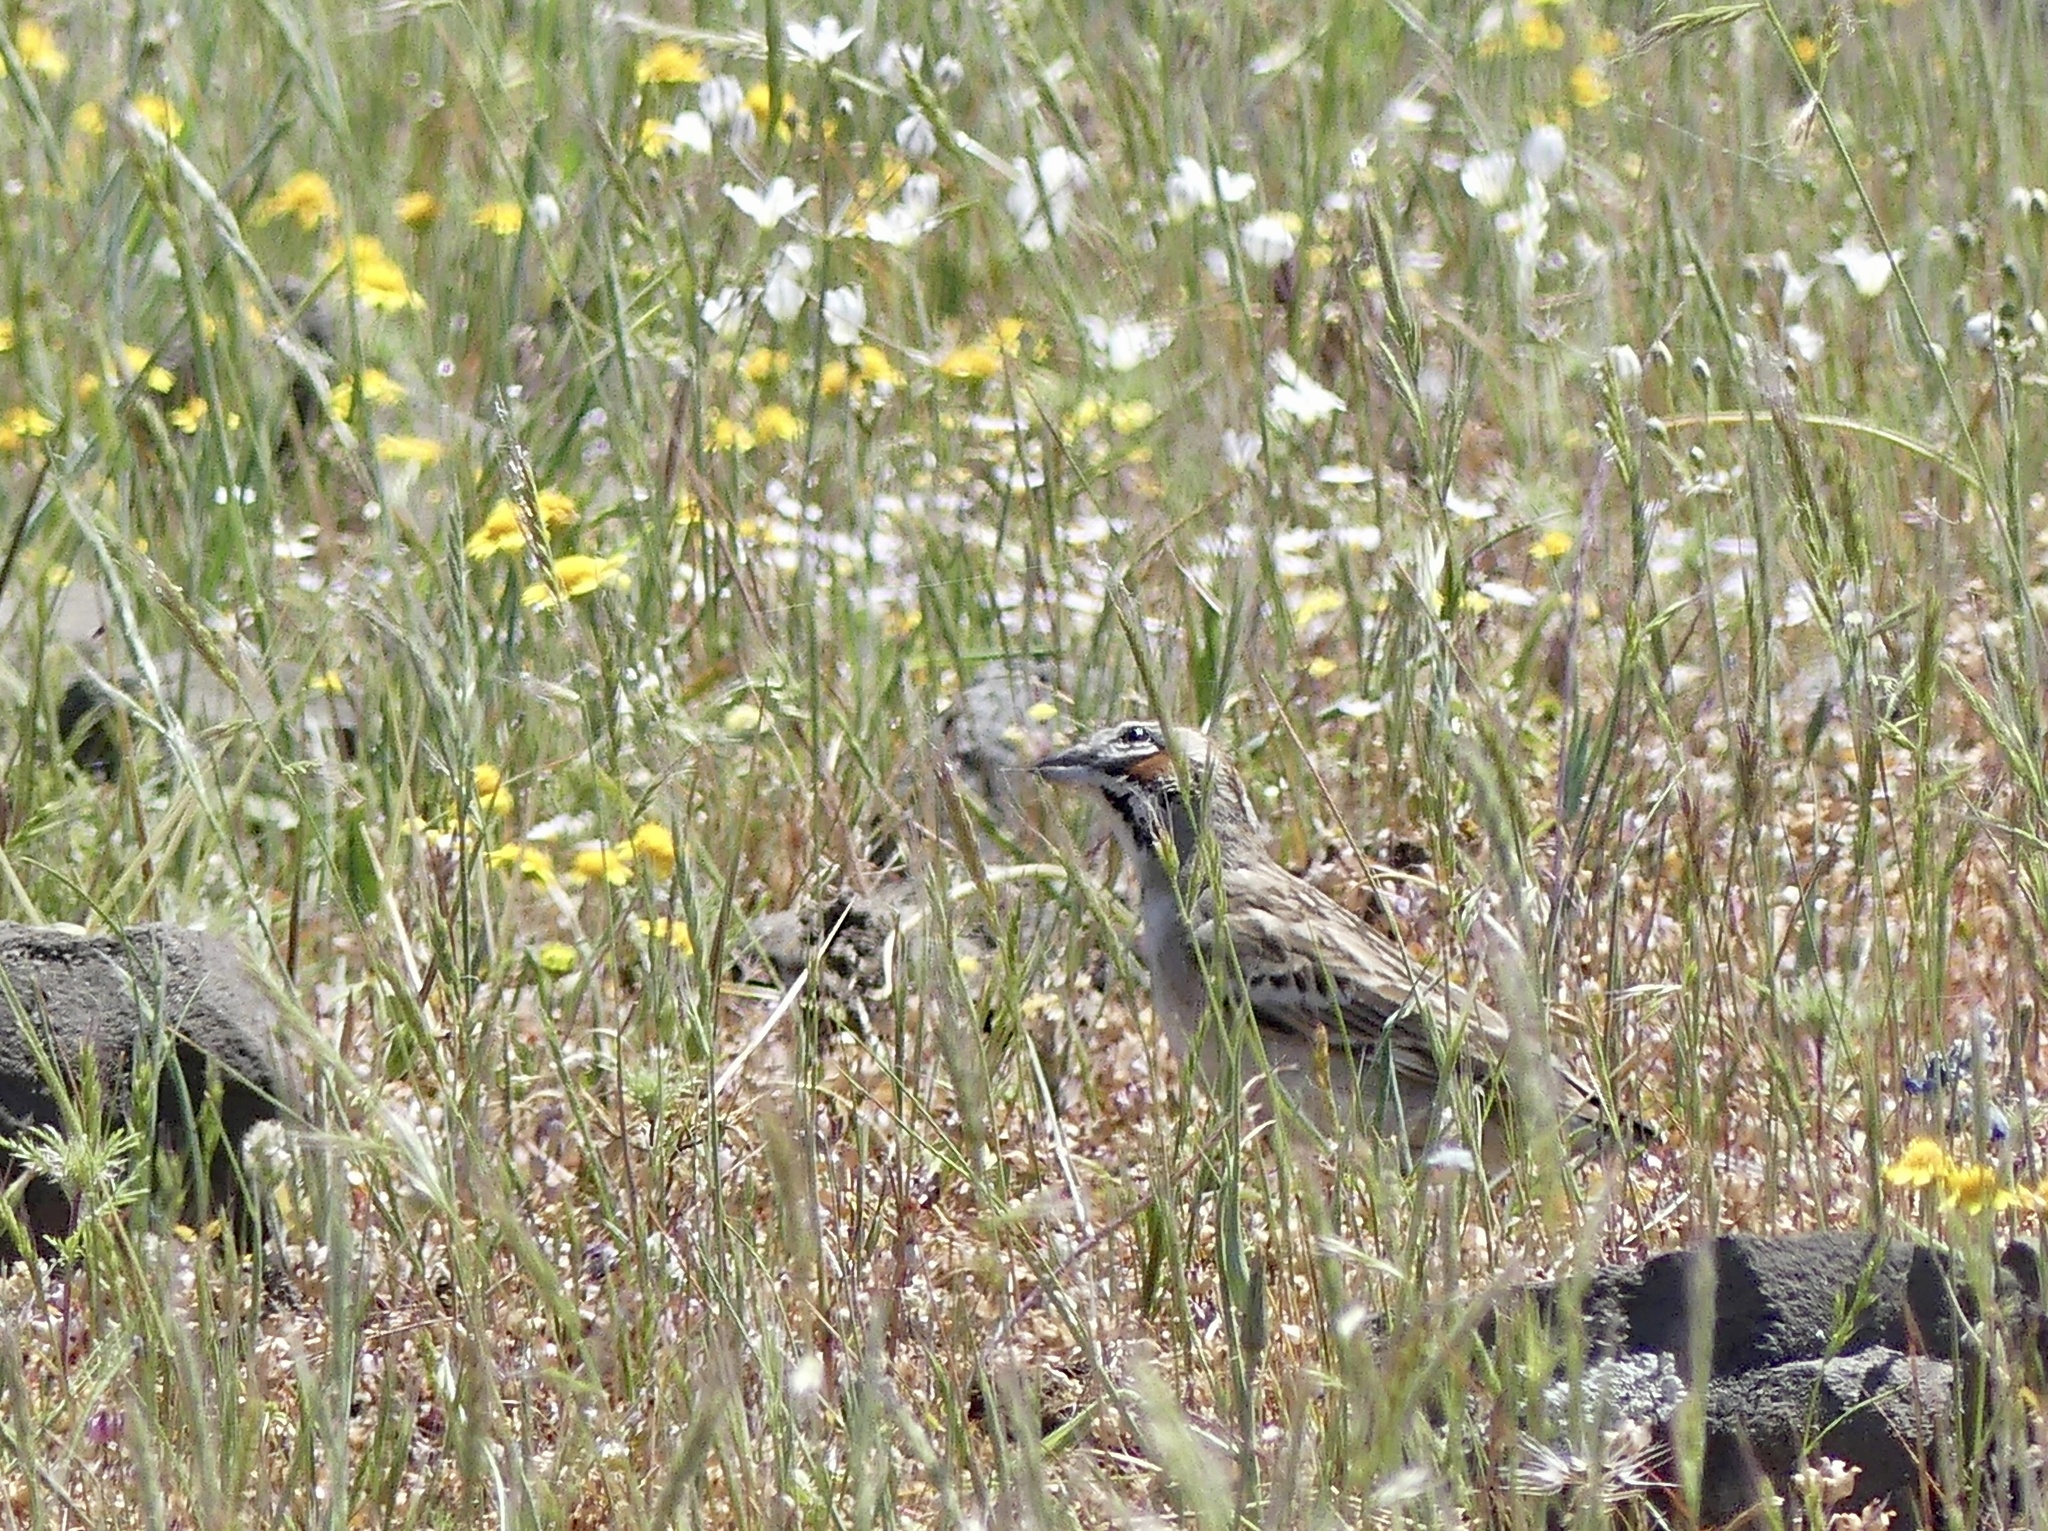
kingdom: Animalia
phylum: Chordata
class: Aves
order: Passeriformes
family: Passerellidae
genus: Chondestes
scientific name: Chondestes grammacus
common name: Lark sparrow
